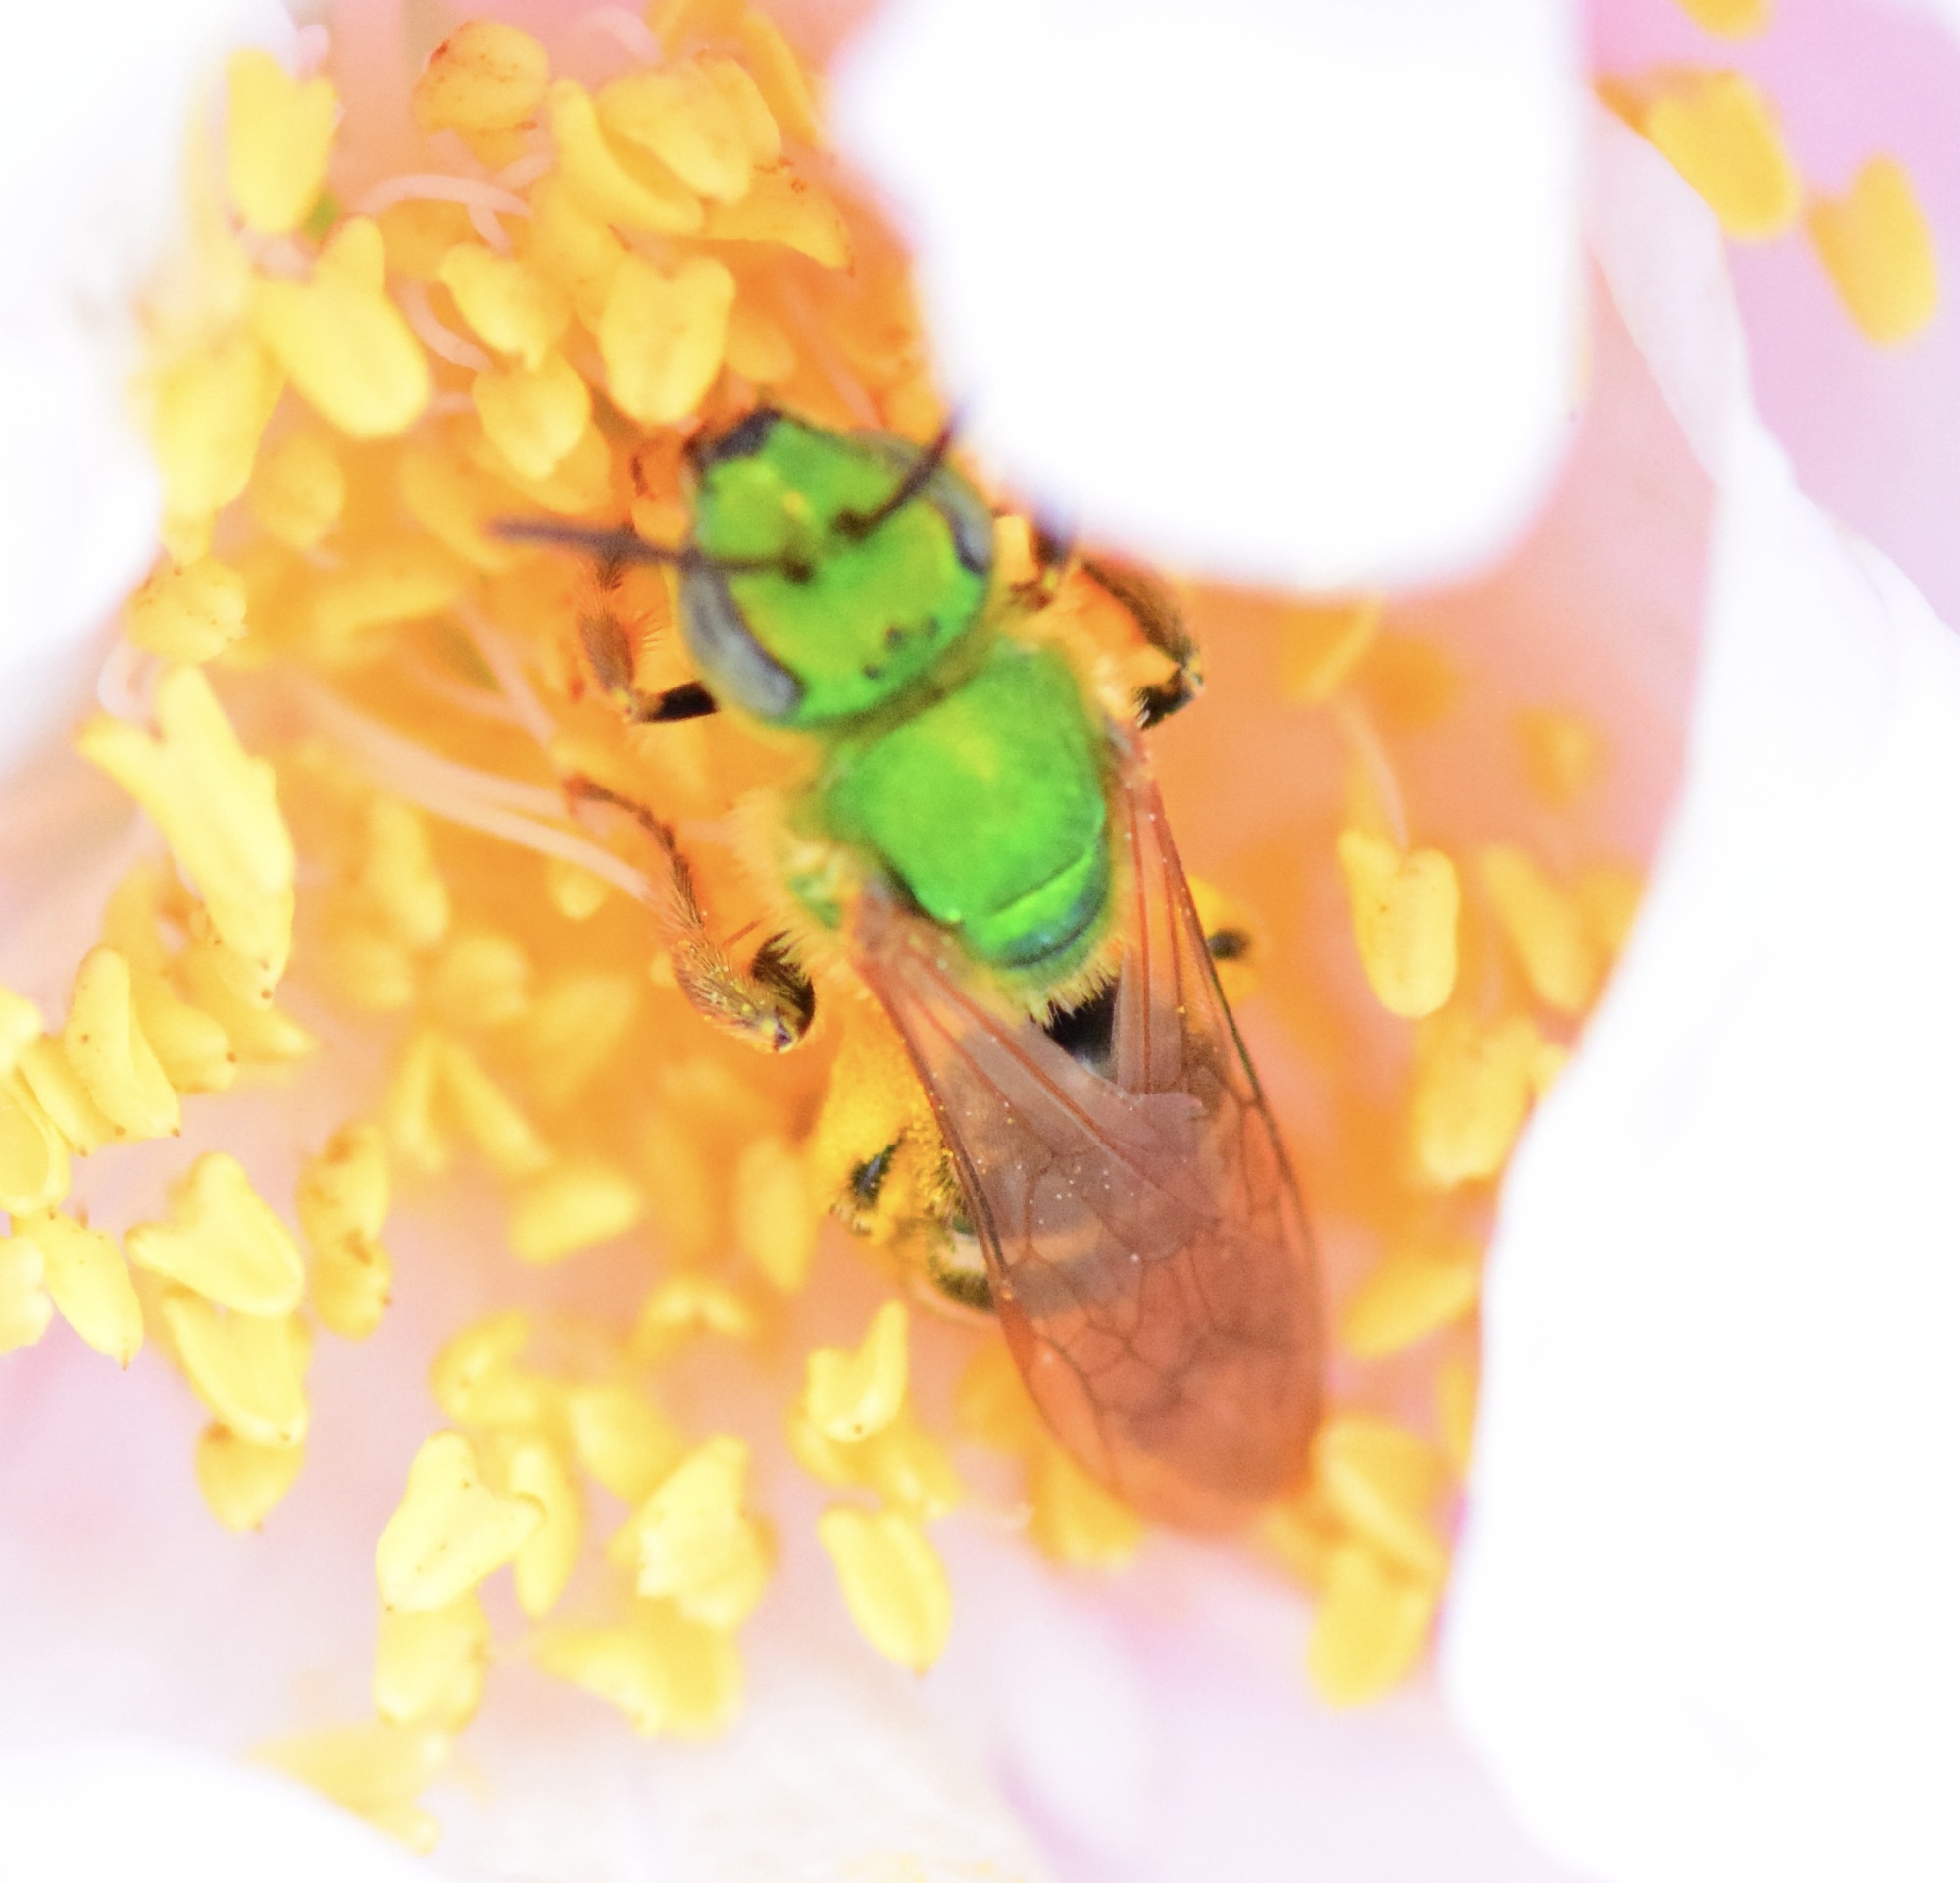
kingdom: Animalia
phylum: Arthropoda
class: Insecta
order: Hymenoptera
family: Halictidae
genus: Agapostemon
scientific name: Agapostemon virescens
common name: Bicolored striped sweat bee
